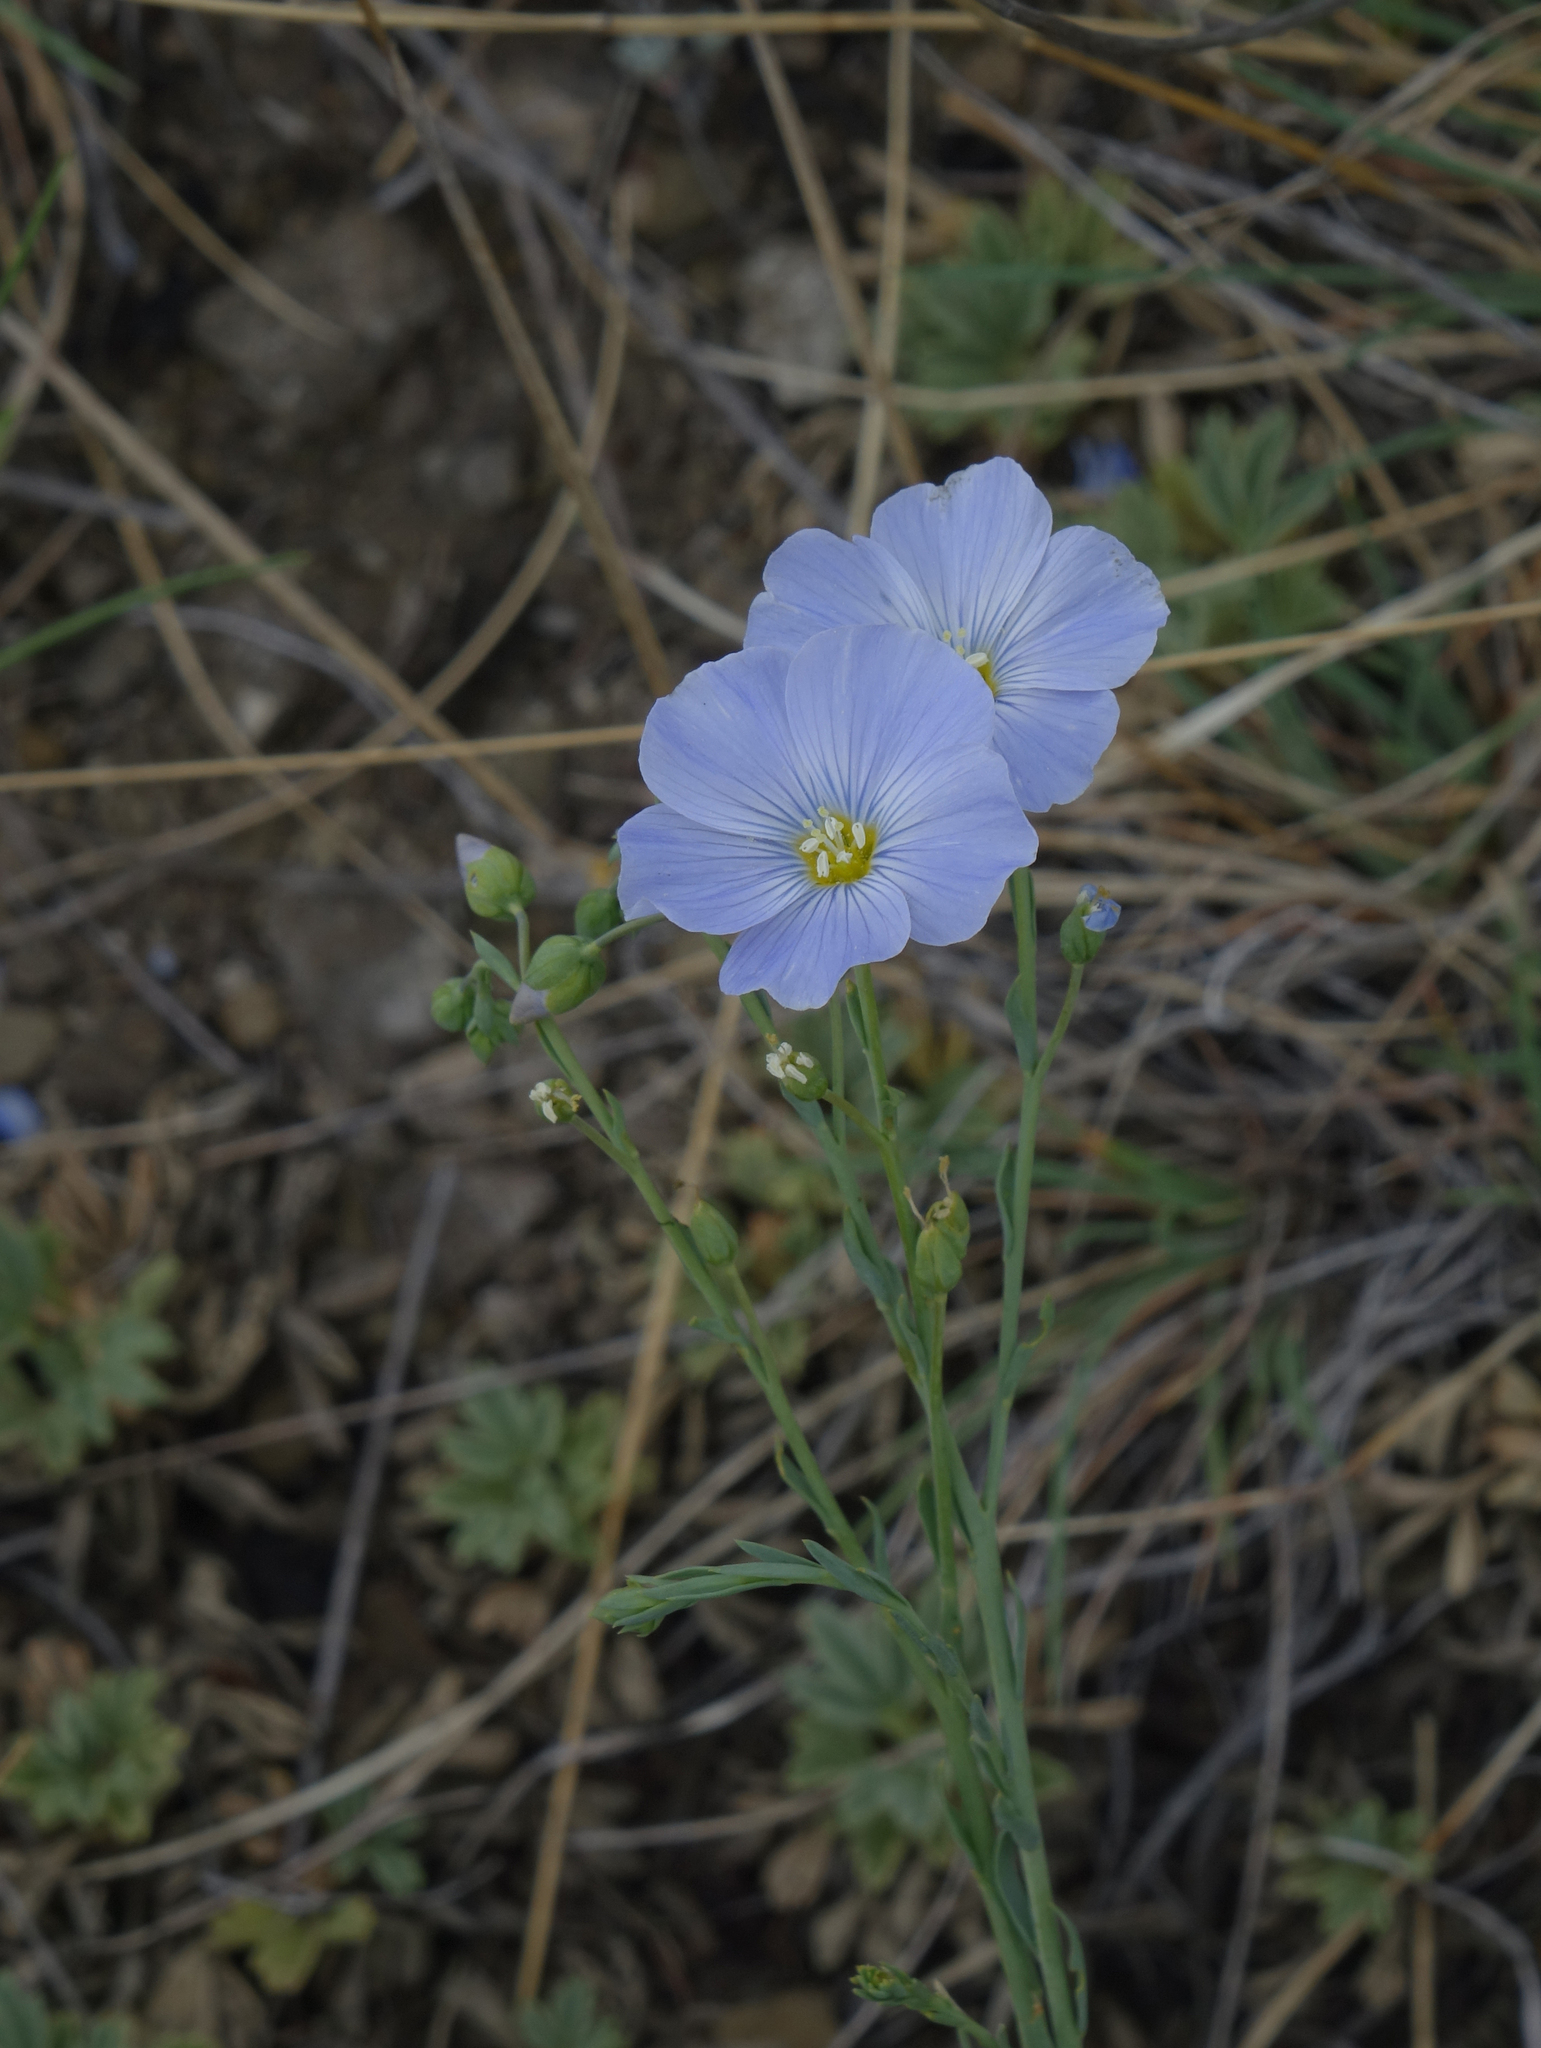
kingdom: Plantae
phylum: Tracheophyta
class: Magnoliopsida
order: Malpighiales
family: Linaceae
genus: Linum
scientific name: Linum perenne
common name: Blue flax
